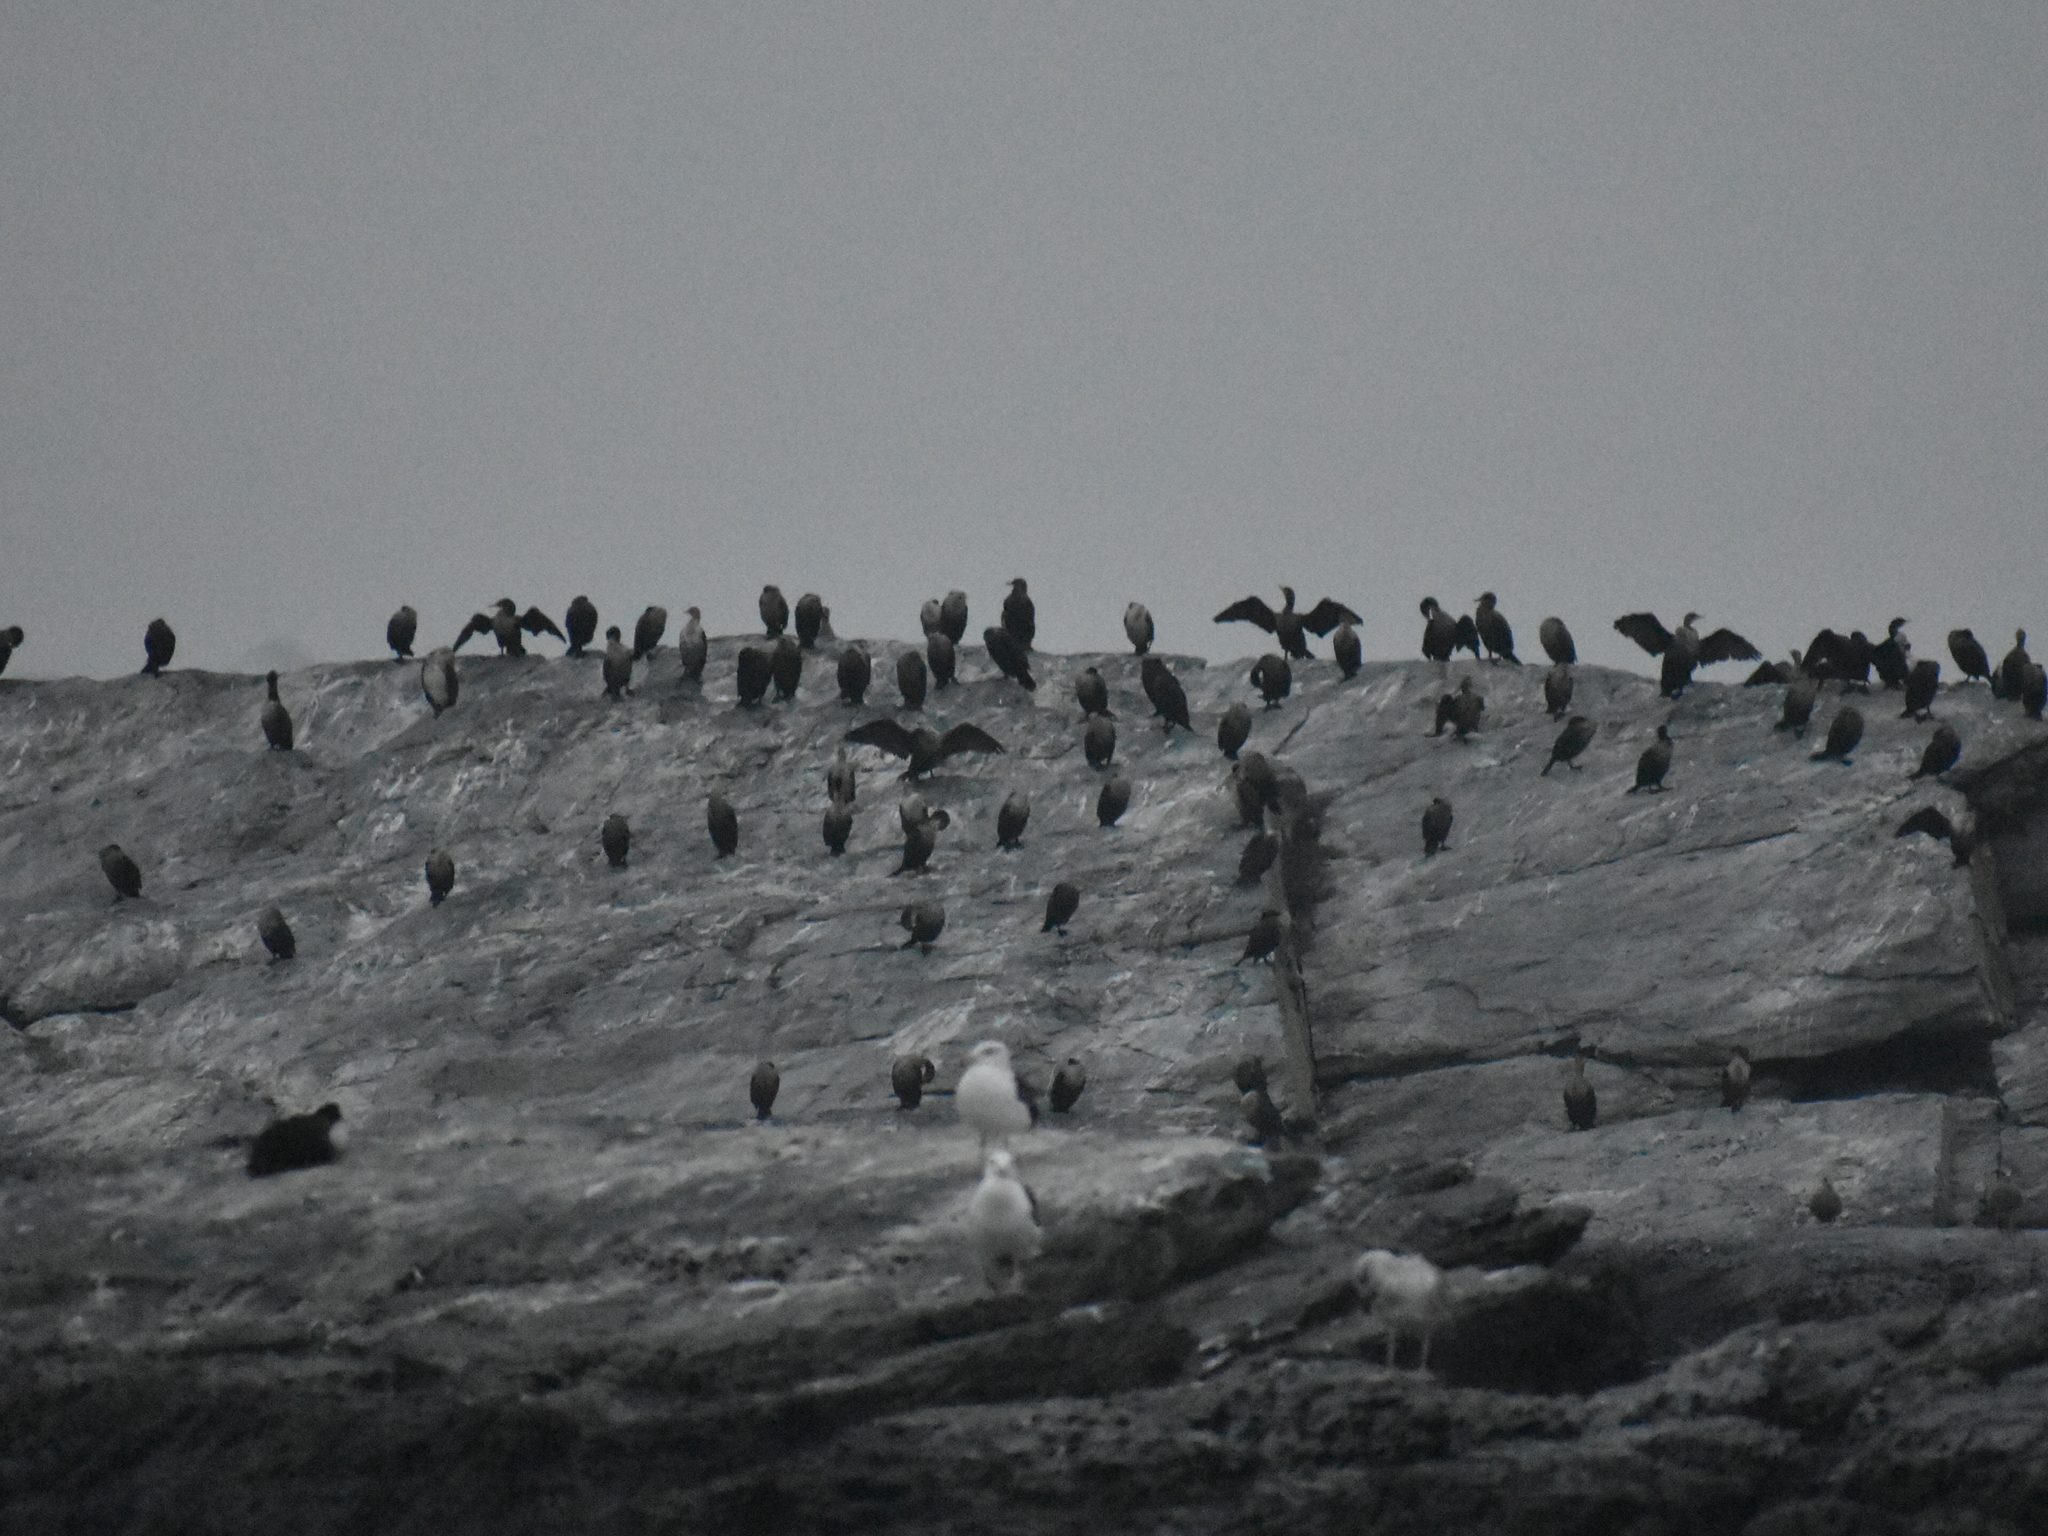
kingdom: Animalia
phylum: Chordata
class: Aves
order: Suliformes
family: Phalacrocoracidae
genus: Phalacrocorax
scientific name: Phalacrocorax auritus
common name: Double-crested cormorant
